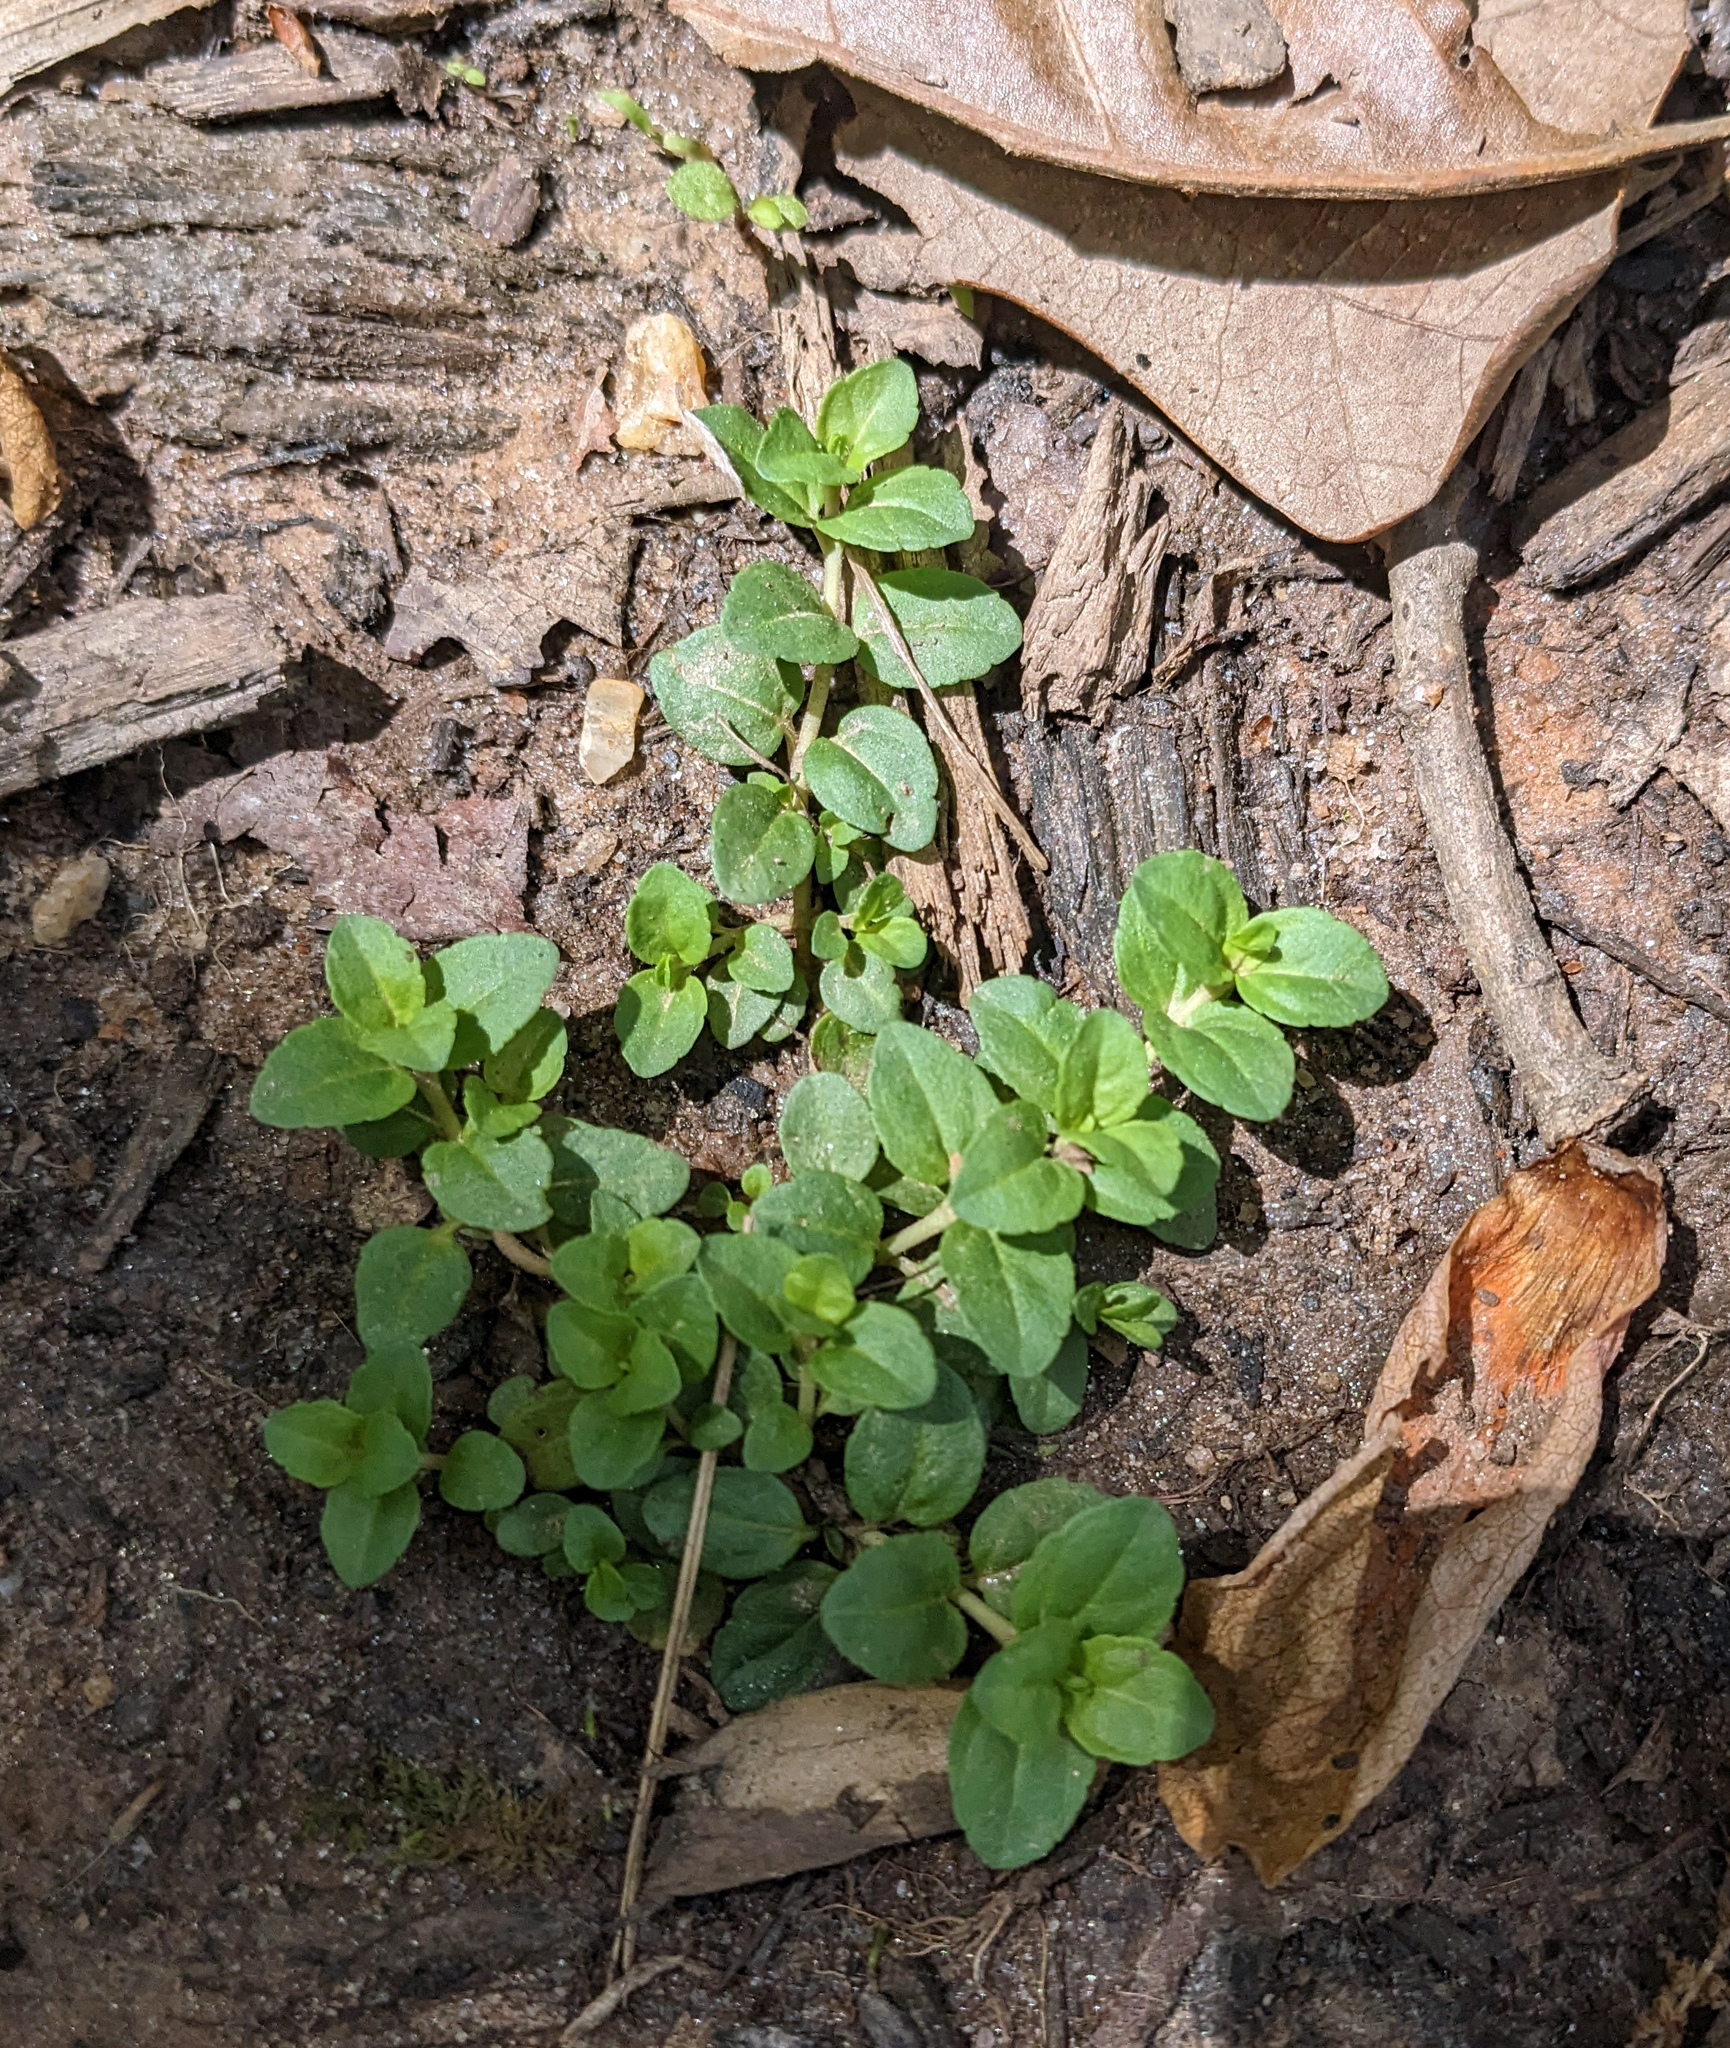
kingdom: Plantae
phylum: Tracheophyta
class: Magnoliopsida
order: Lamiales
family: Plantaginaceae
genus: Veronica
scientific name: Veronica serpyllifolia
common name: Thyme-leaved speedwell
